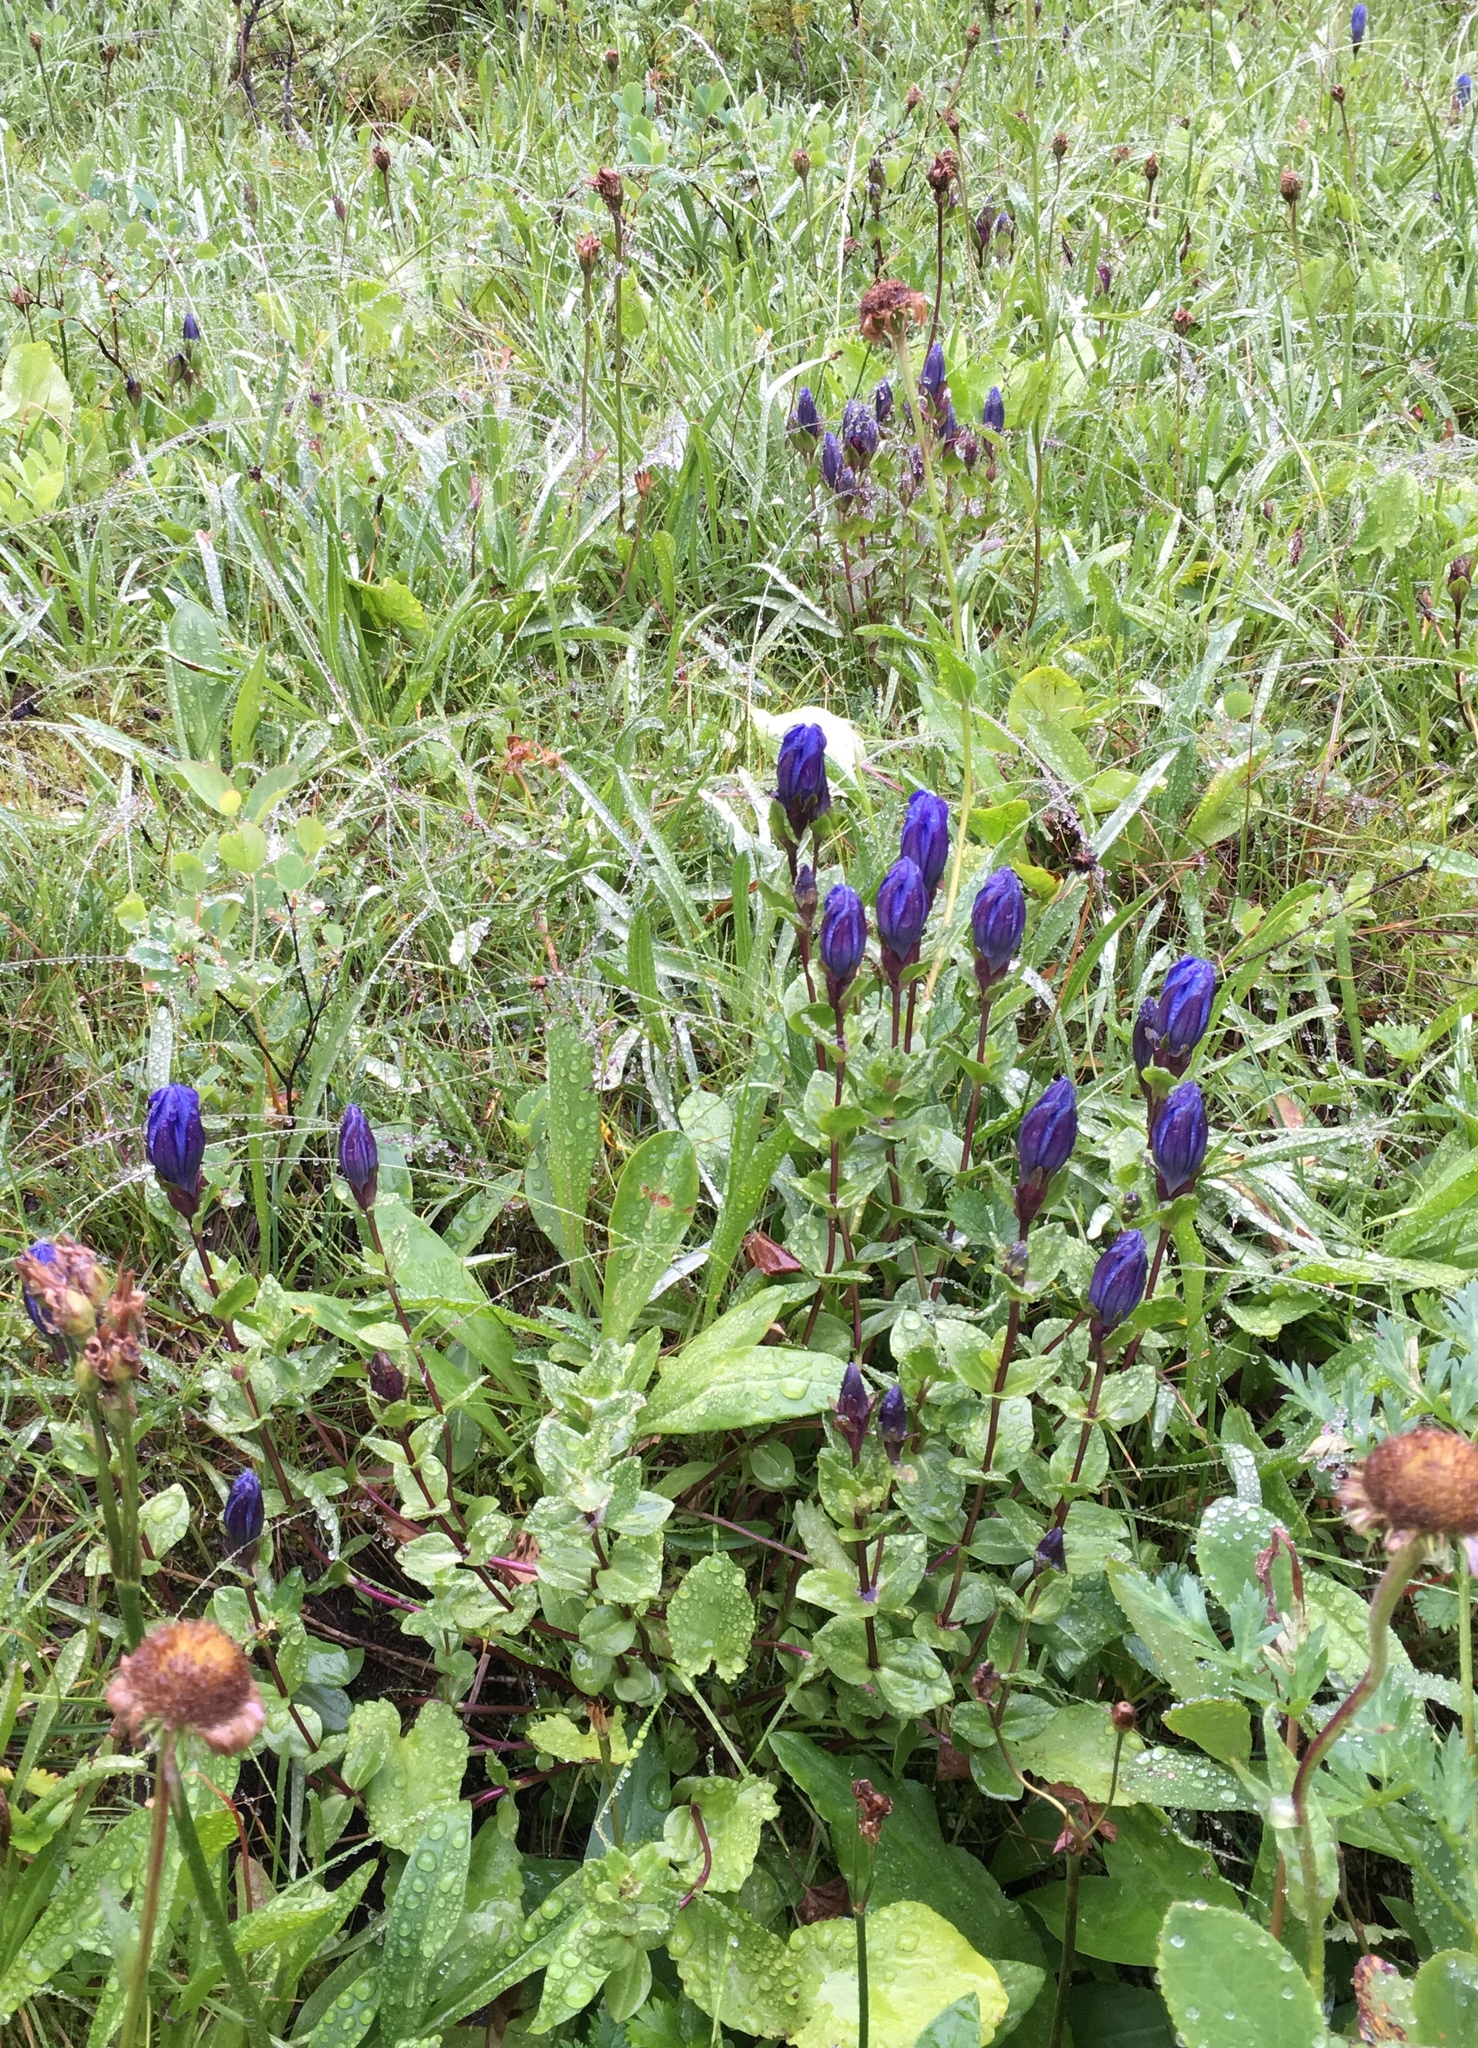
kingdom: Plantae
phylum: Tracheophyta
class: Magnoliopsida
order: Gentianales
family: Gentianaceae
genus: Gentiana
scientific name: Gentiana calycosa
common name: Rainier pleated gentian
